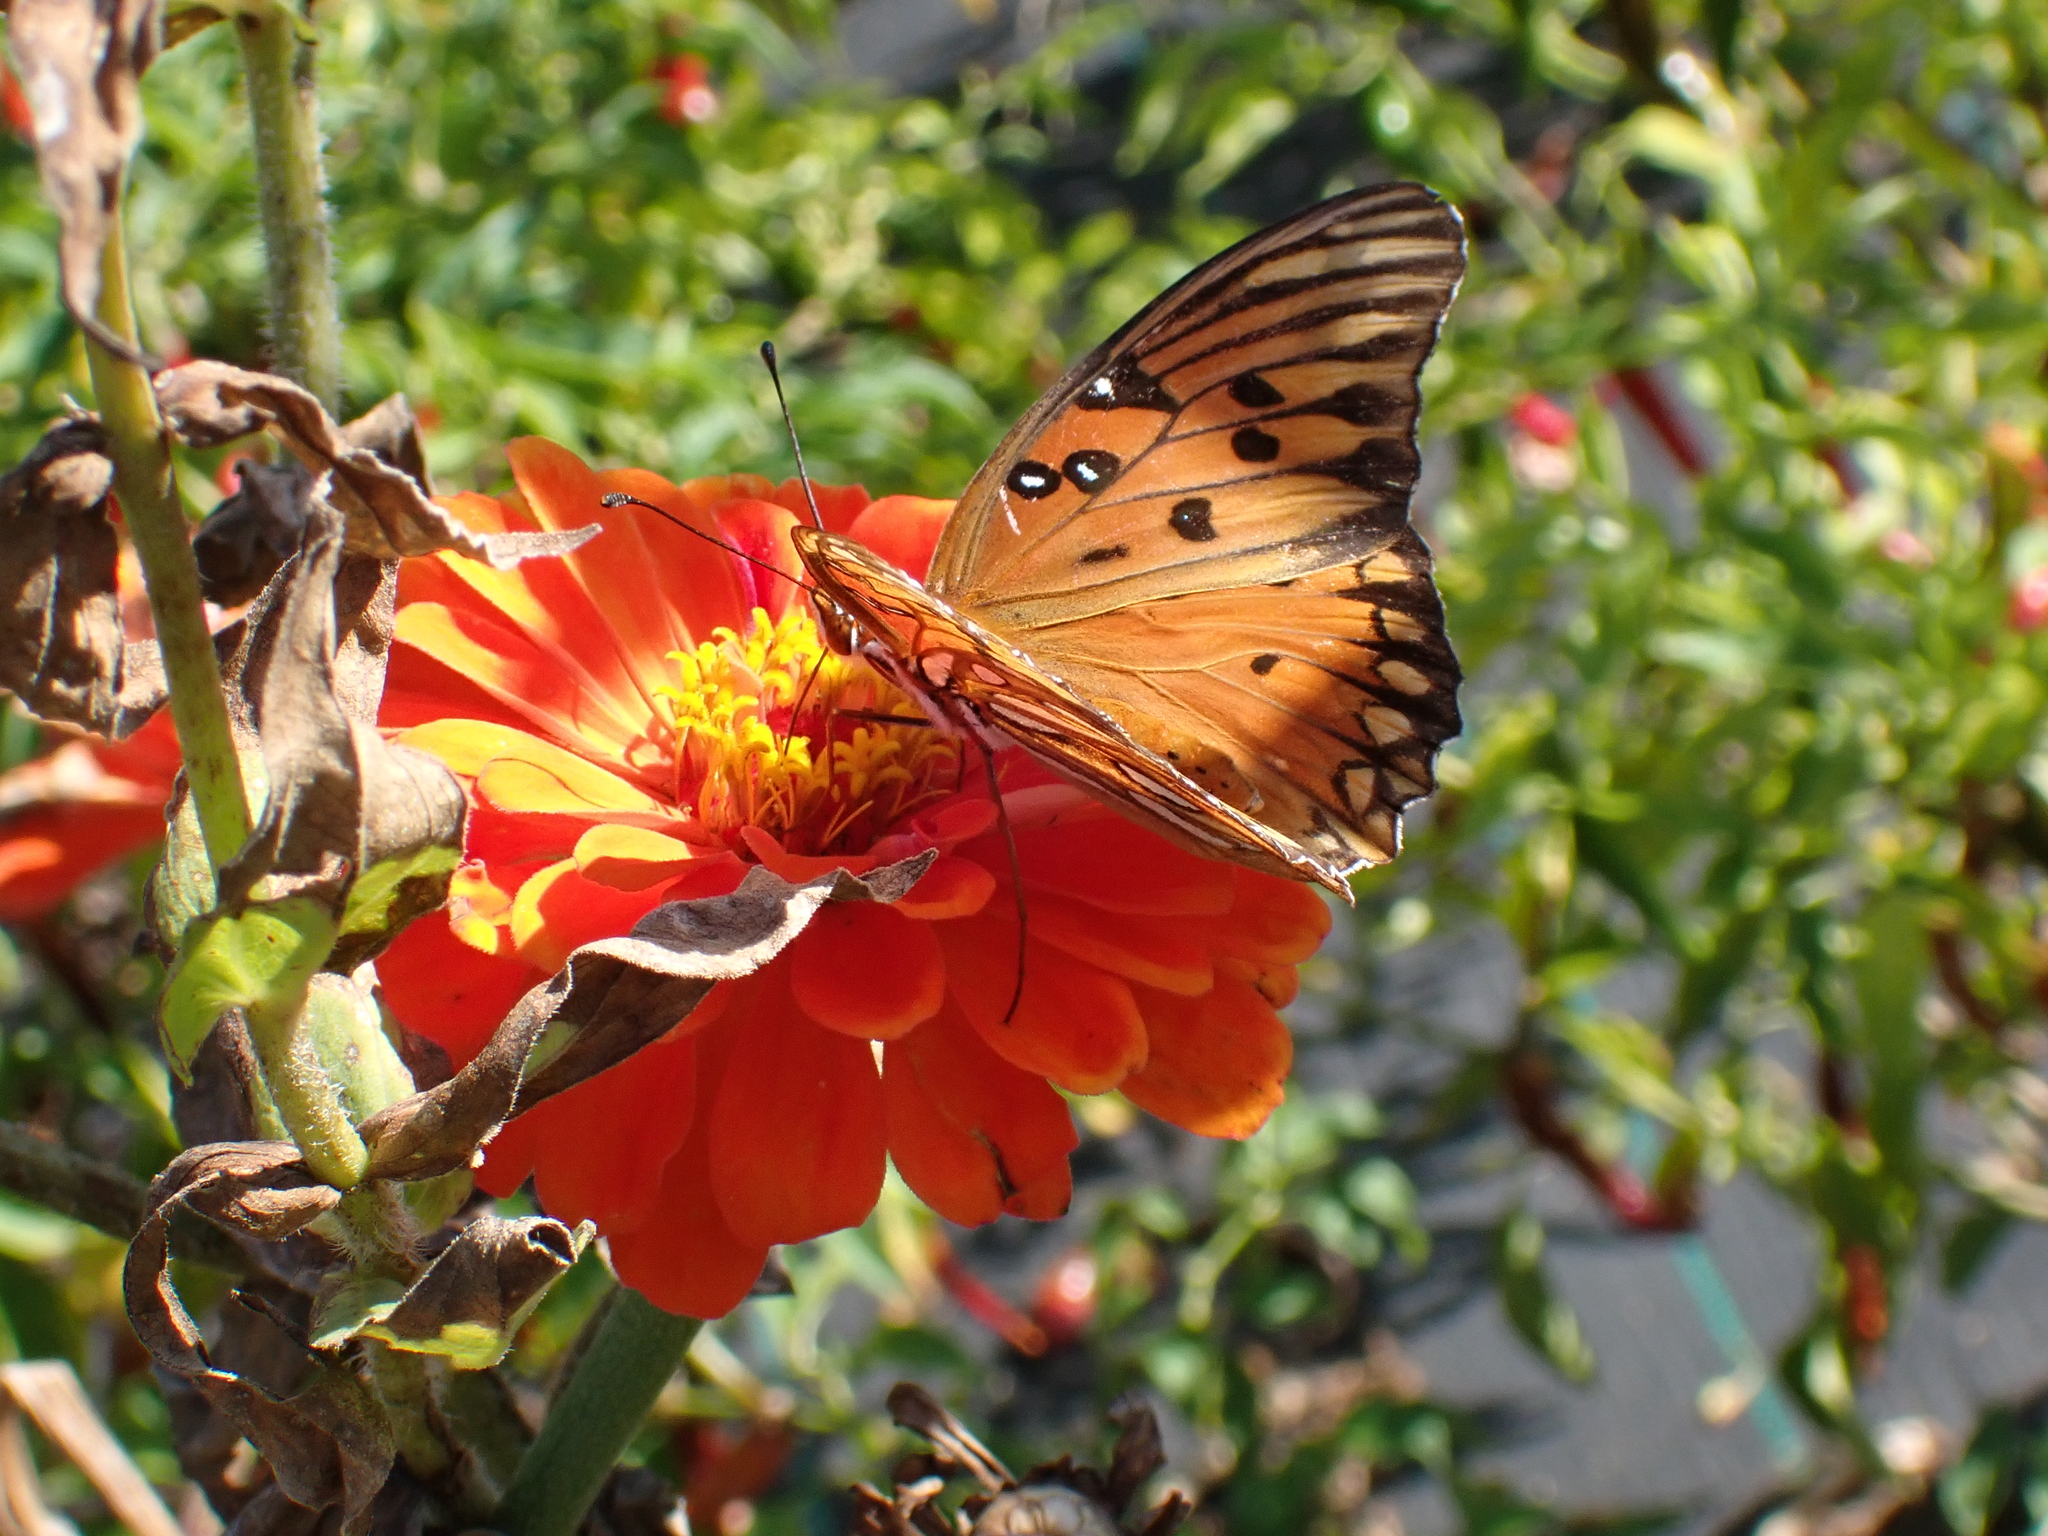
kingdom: Animalia
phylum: Arthropoda
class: Insecta
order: Lepidoptera
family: Nymphalidae
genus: Dione
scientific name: Dione vanillae
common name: Gulf fritillary
